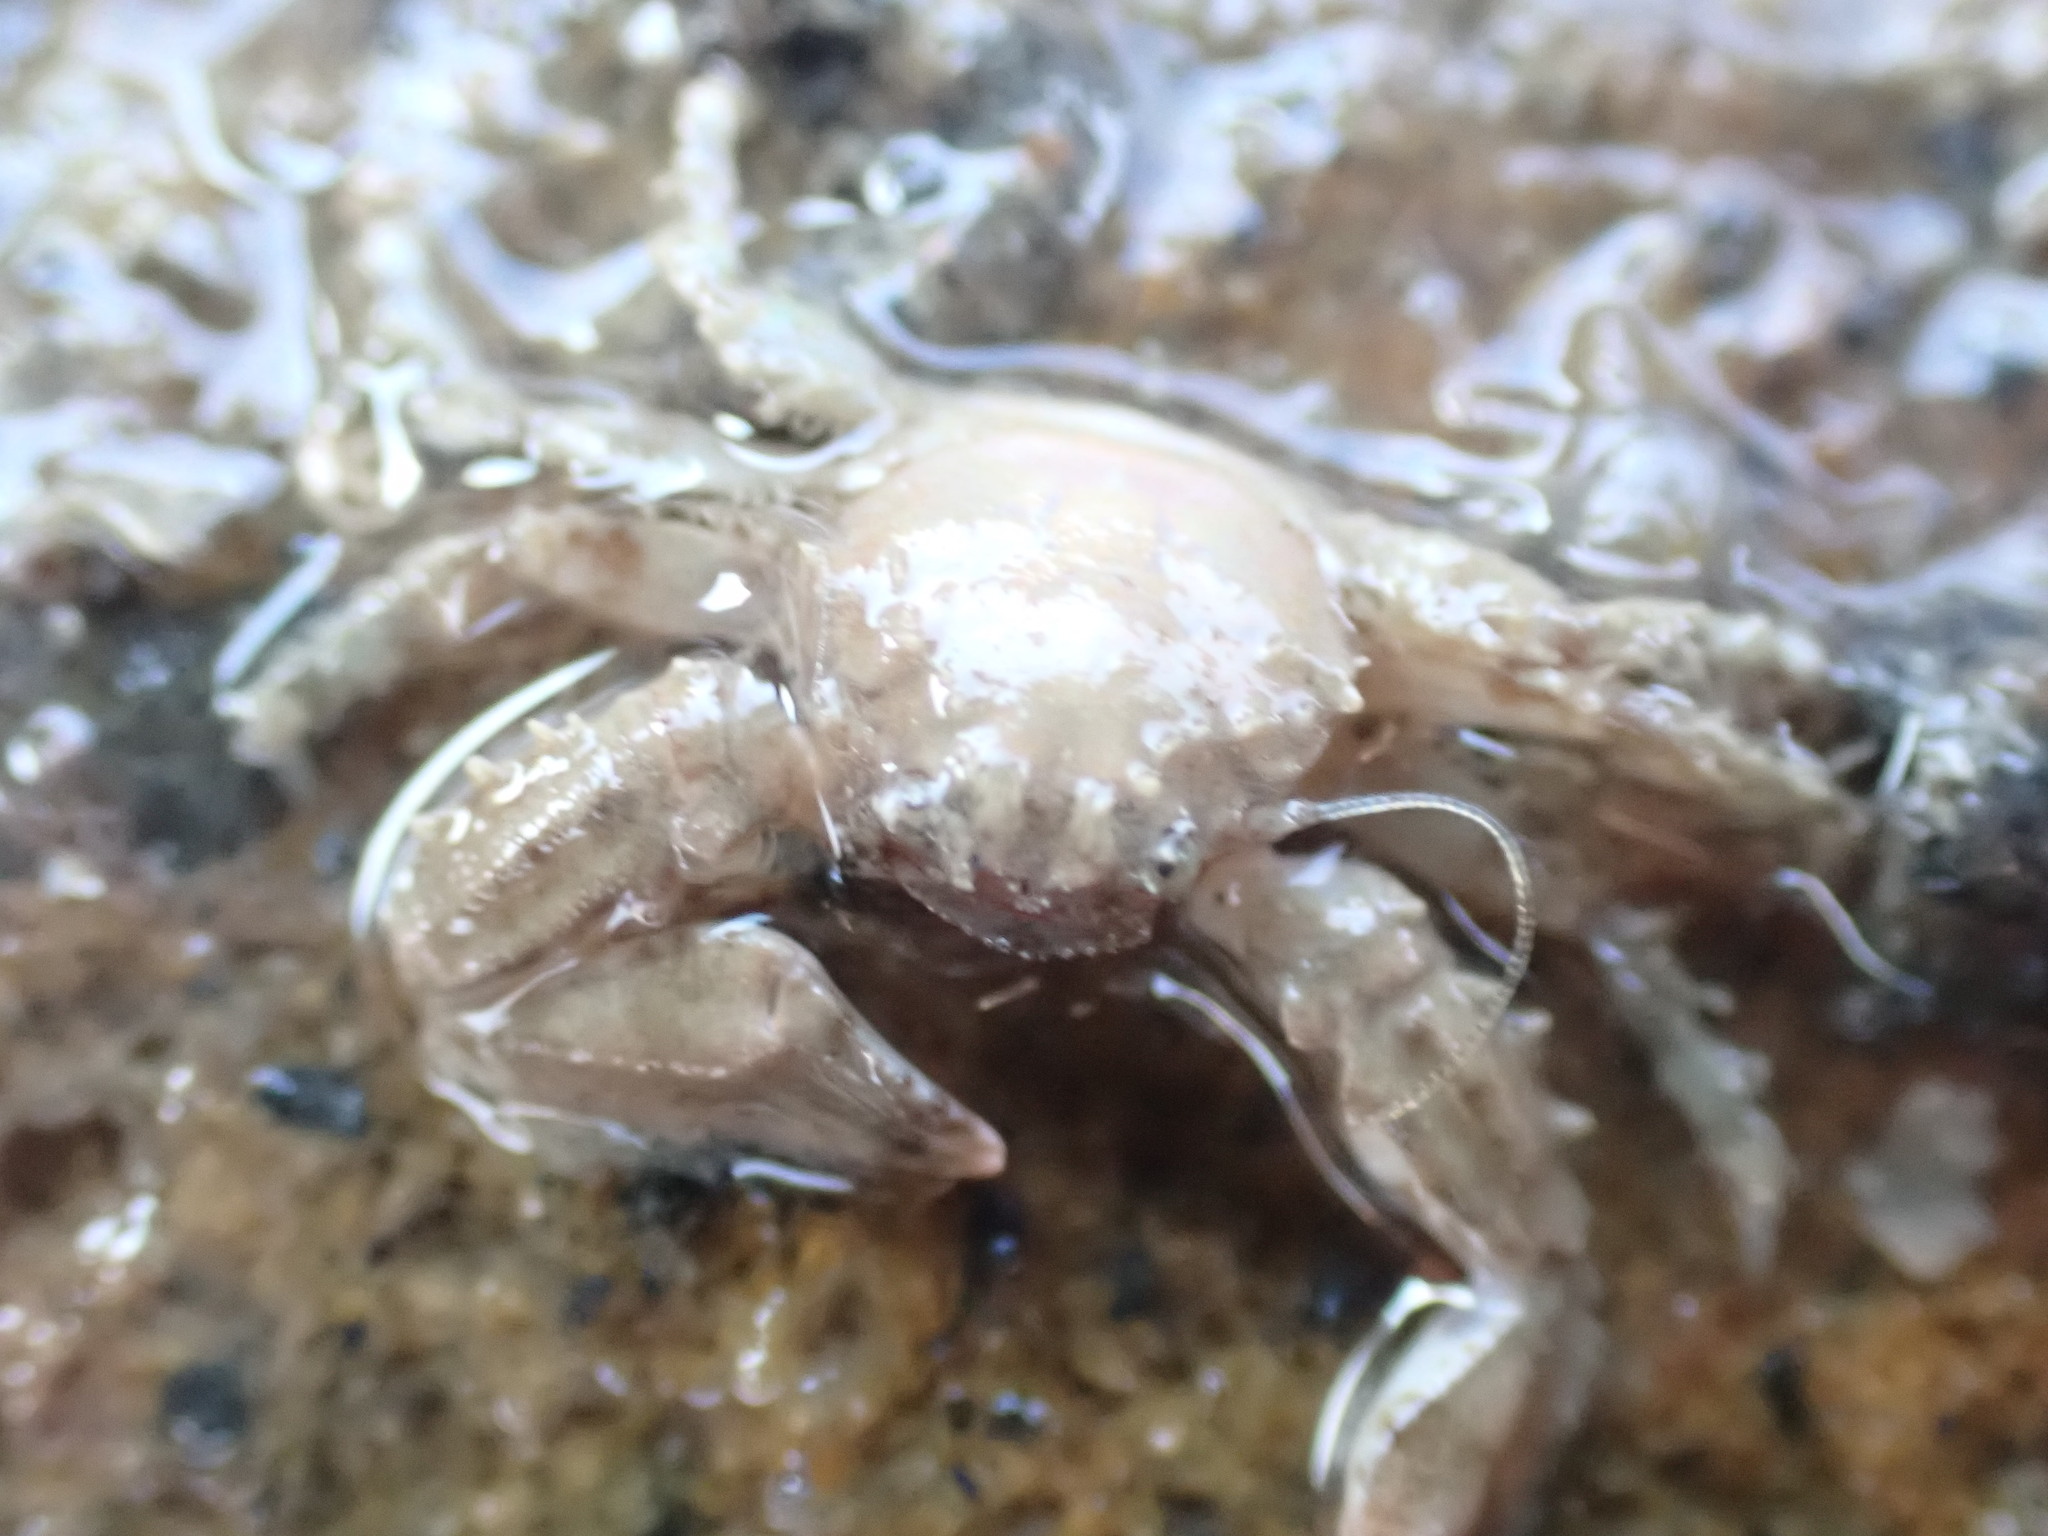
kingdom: Animalia
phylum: Arthropoda
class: Malacostraca
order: Decapoda
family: Porcellanidae
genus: Petrolisthes
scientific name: Petrolisthes novaezelandiae
